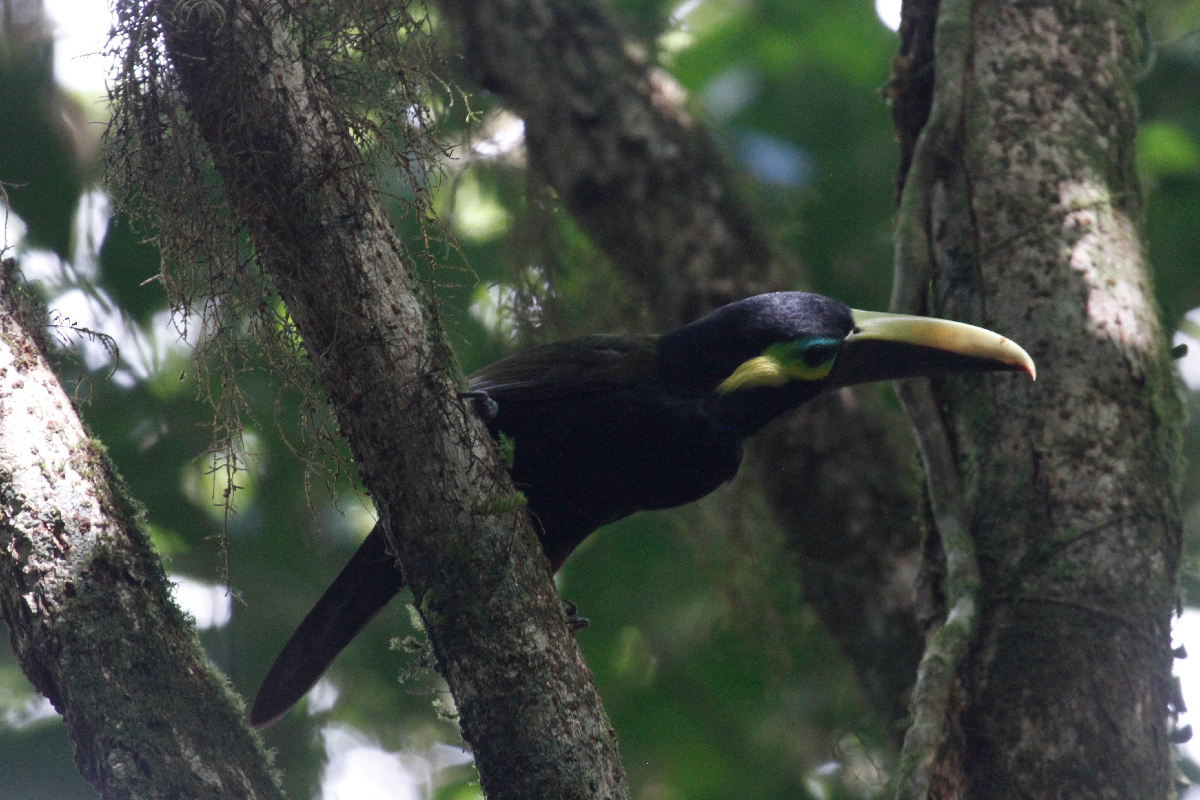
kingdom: Animalia
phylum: Chordata
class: Aves
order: Piciformes
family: Ramphastidae
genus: Selenidera
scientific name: Selenidera spectabilis
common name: Yellow-eared toucanet
